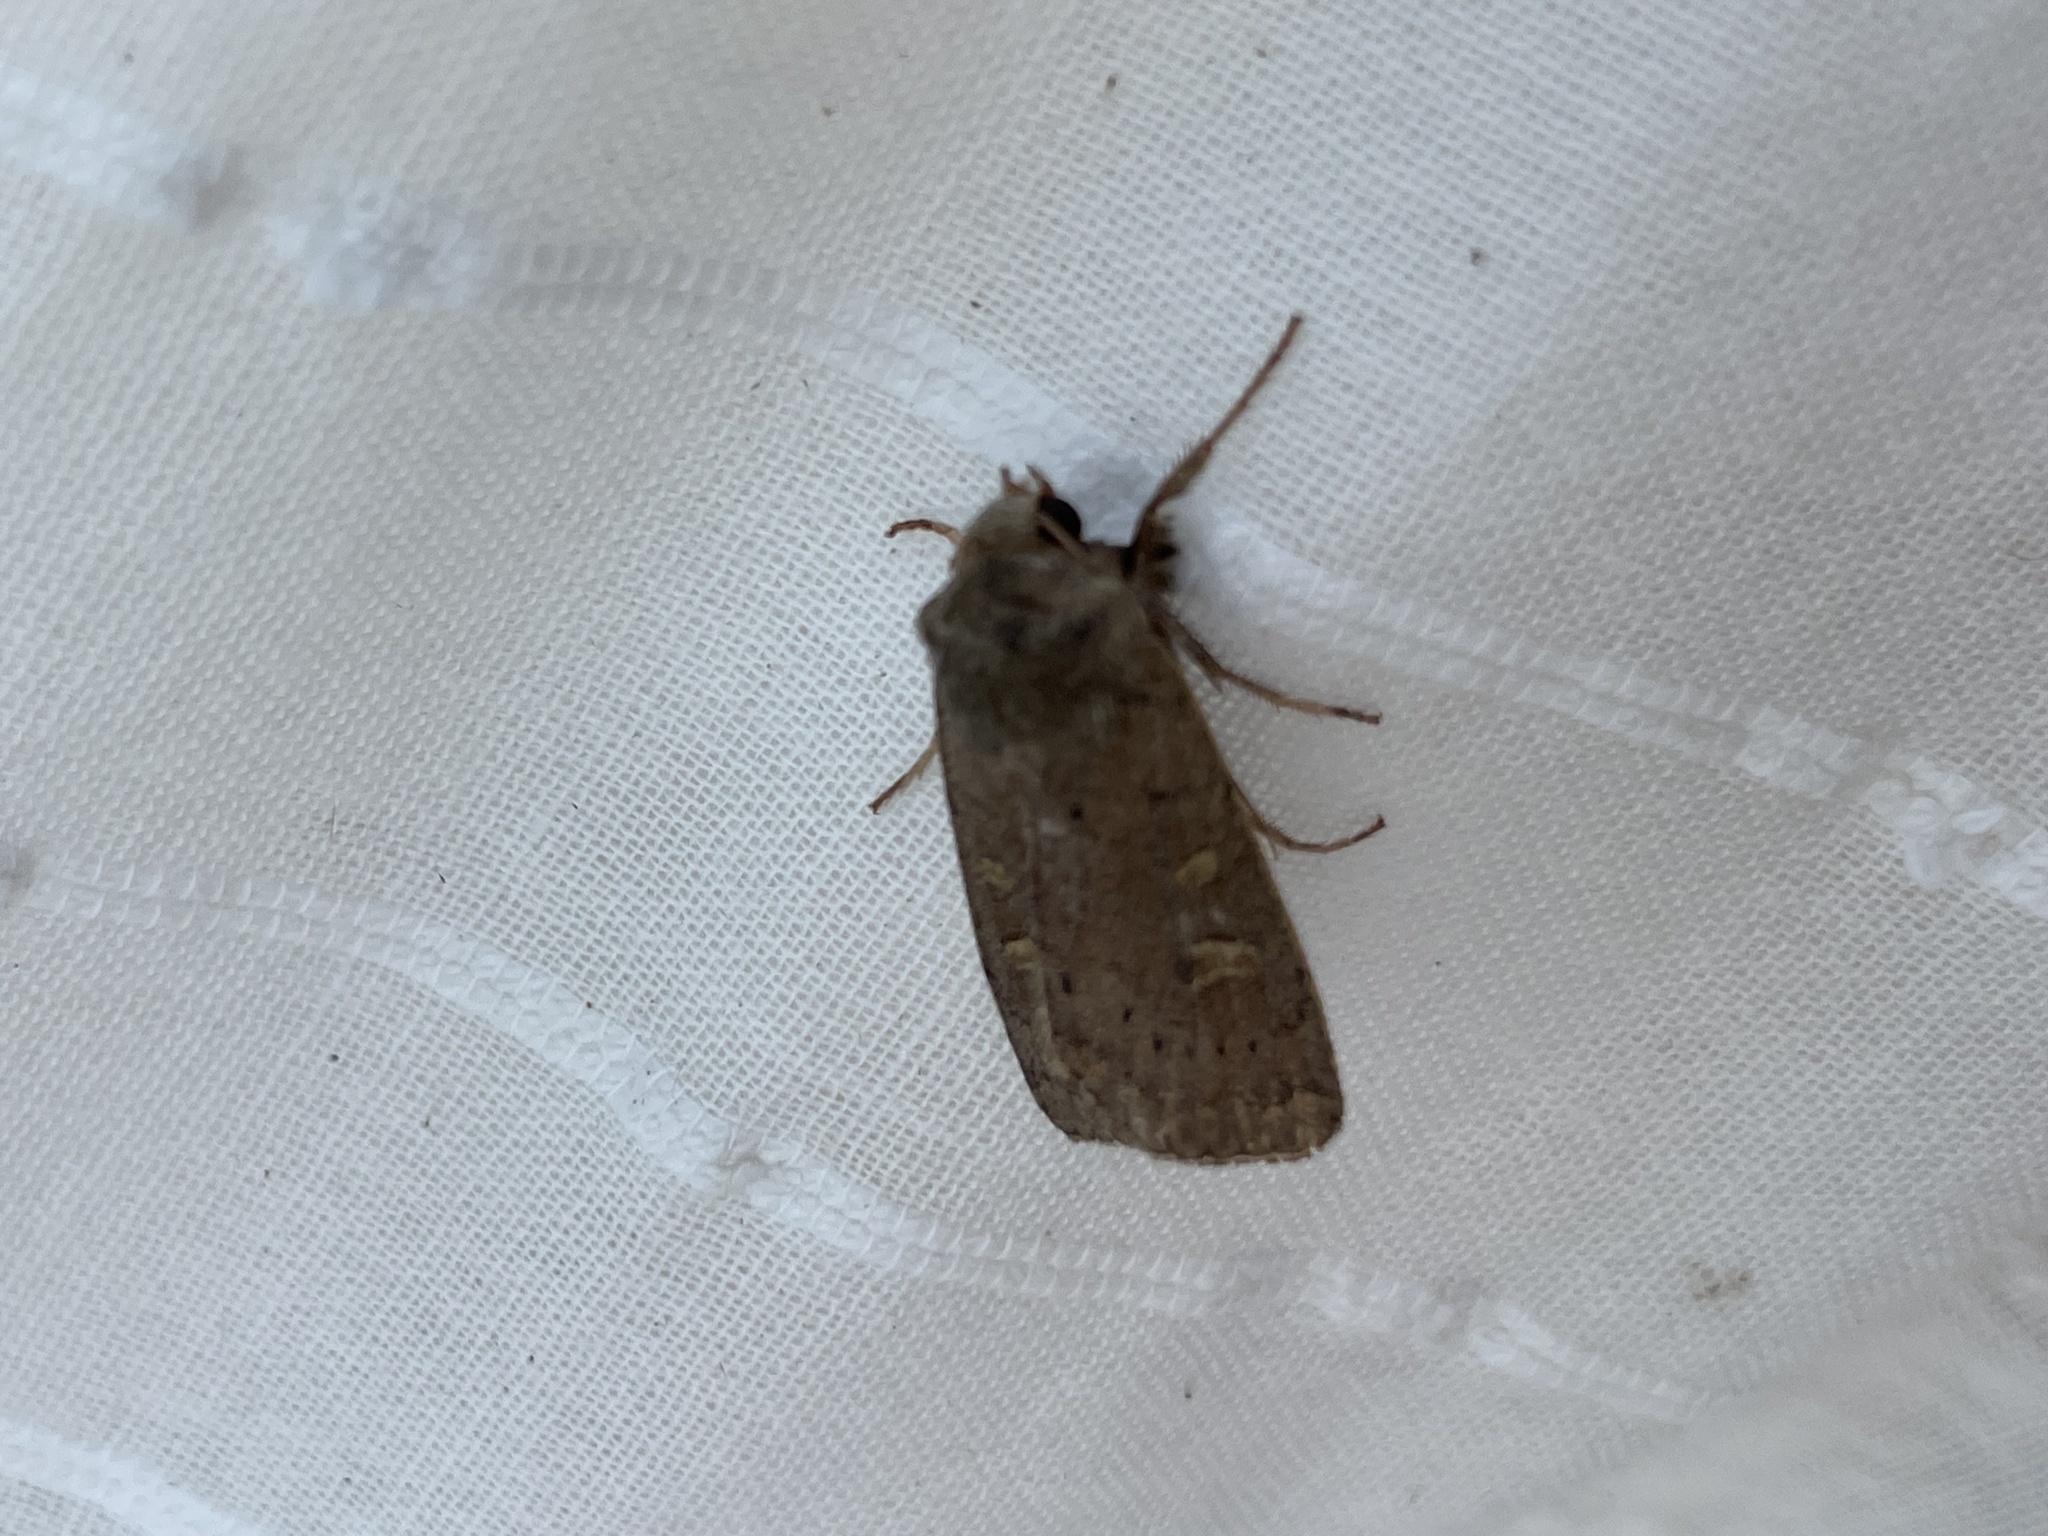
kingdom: Animalia
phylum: Arthropoda
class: Insecta
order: Lepidoptera
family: Noctuidae
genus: Xestia
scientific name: Xestia xanthographa
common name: Square-spot rustic
